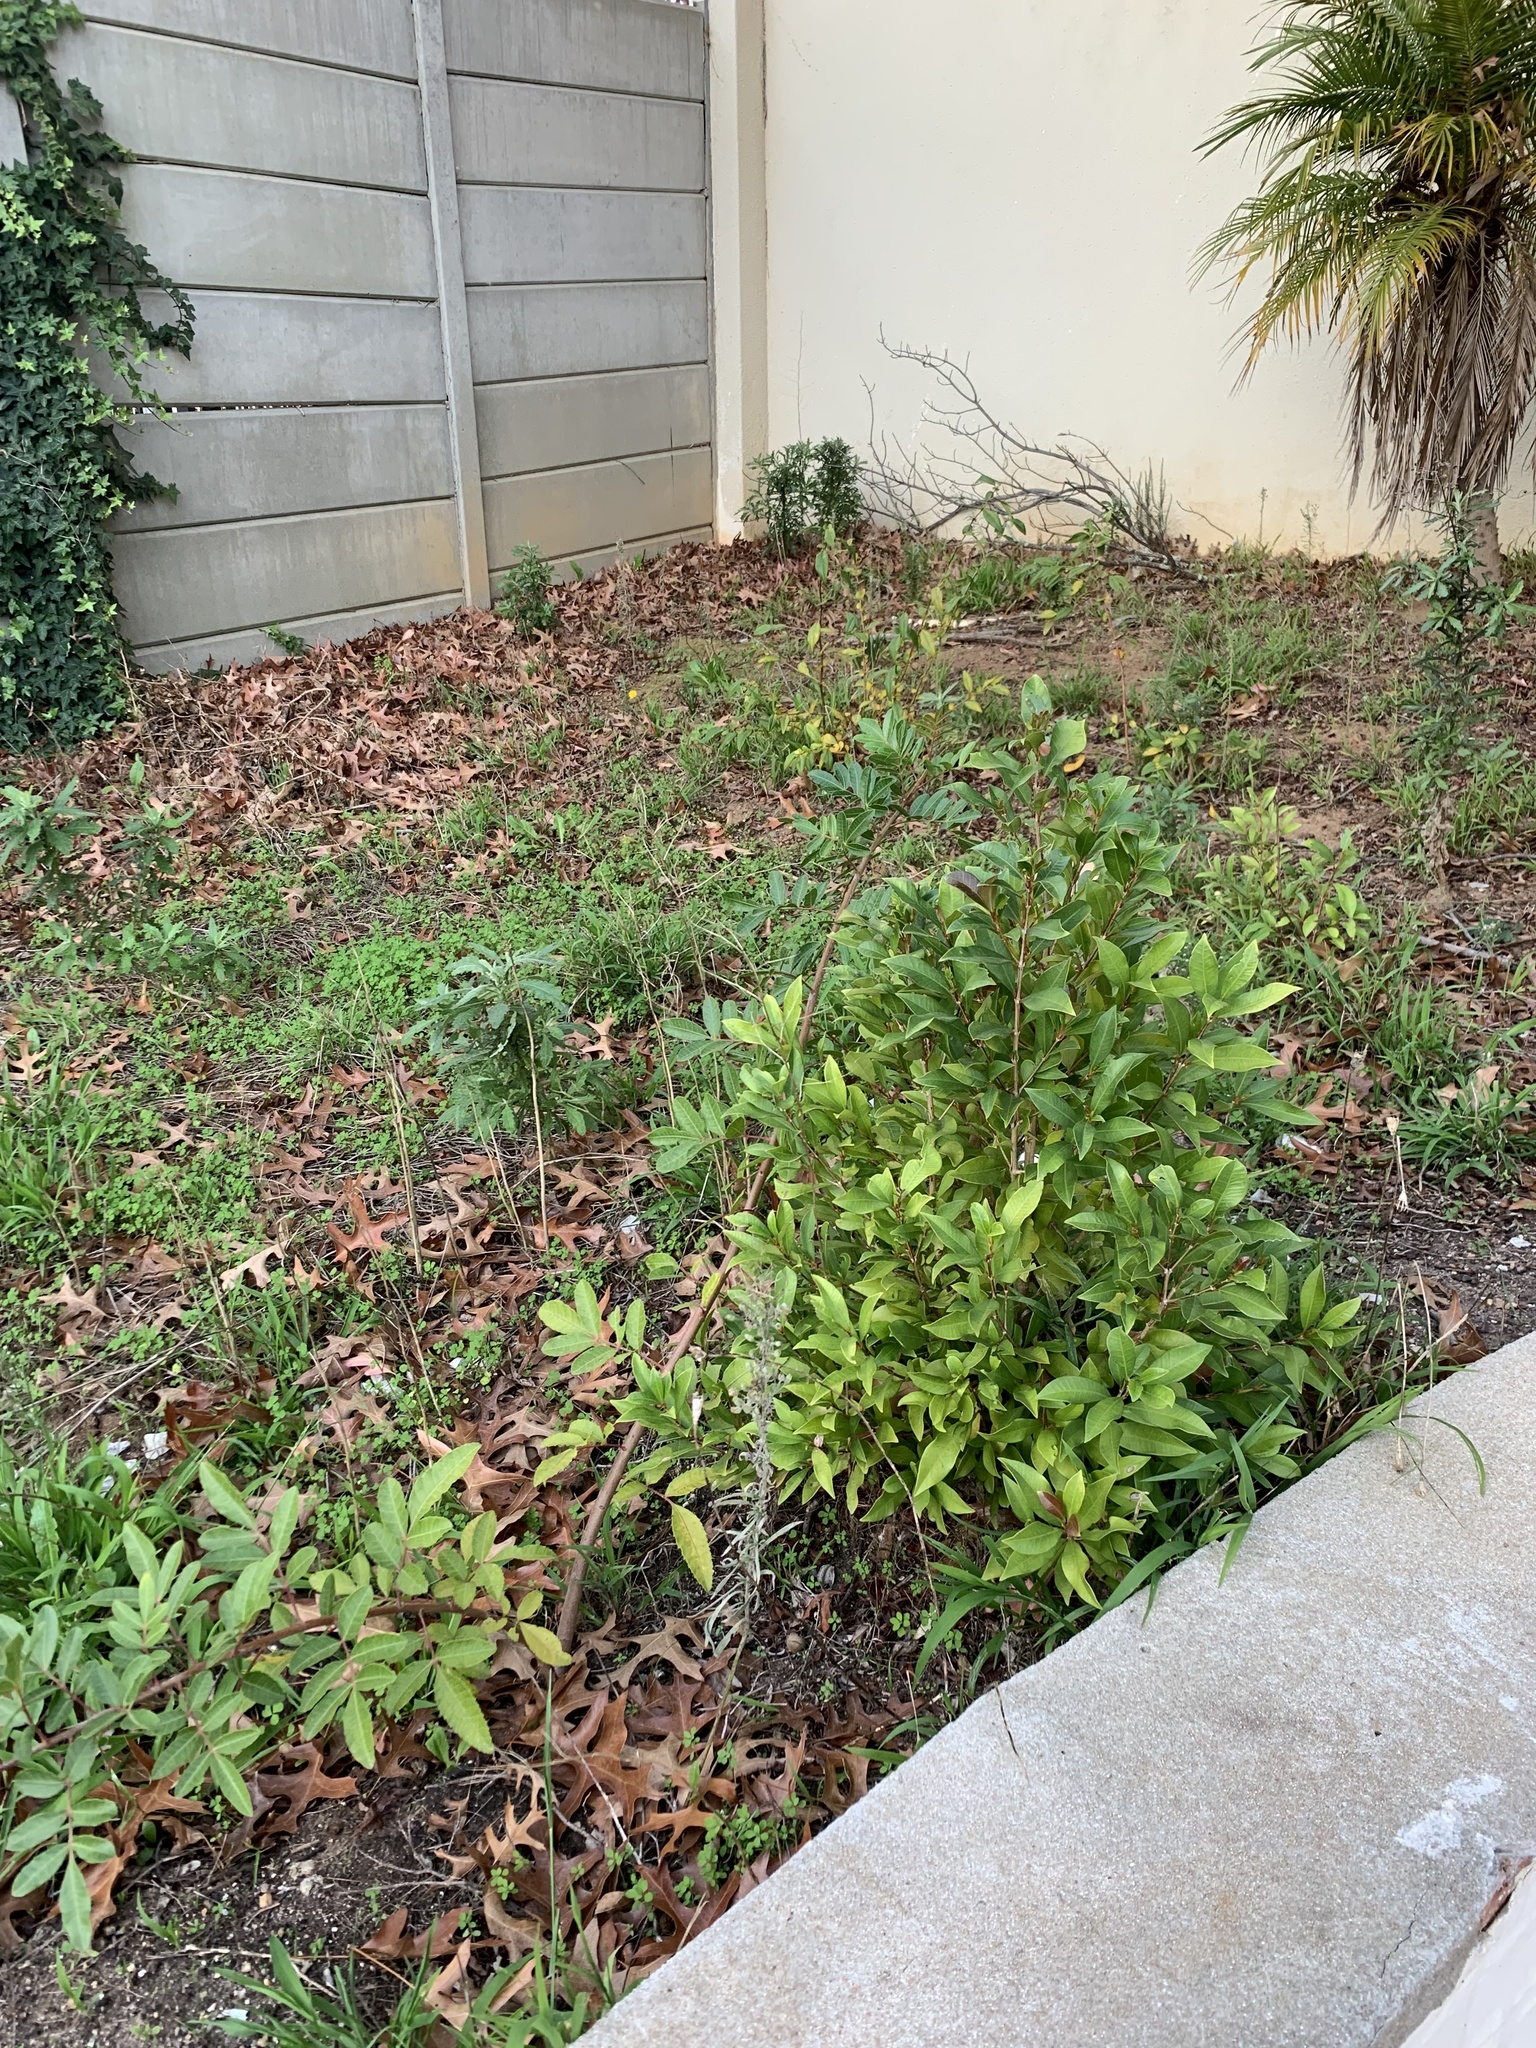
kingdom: Plantae
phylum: Tracheophyta
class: Magnoliopsida
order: Myrtales
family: Myrtaceae
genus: Syzygium
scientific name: Syzygium australe
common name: Australian brush-cherry
